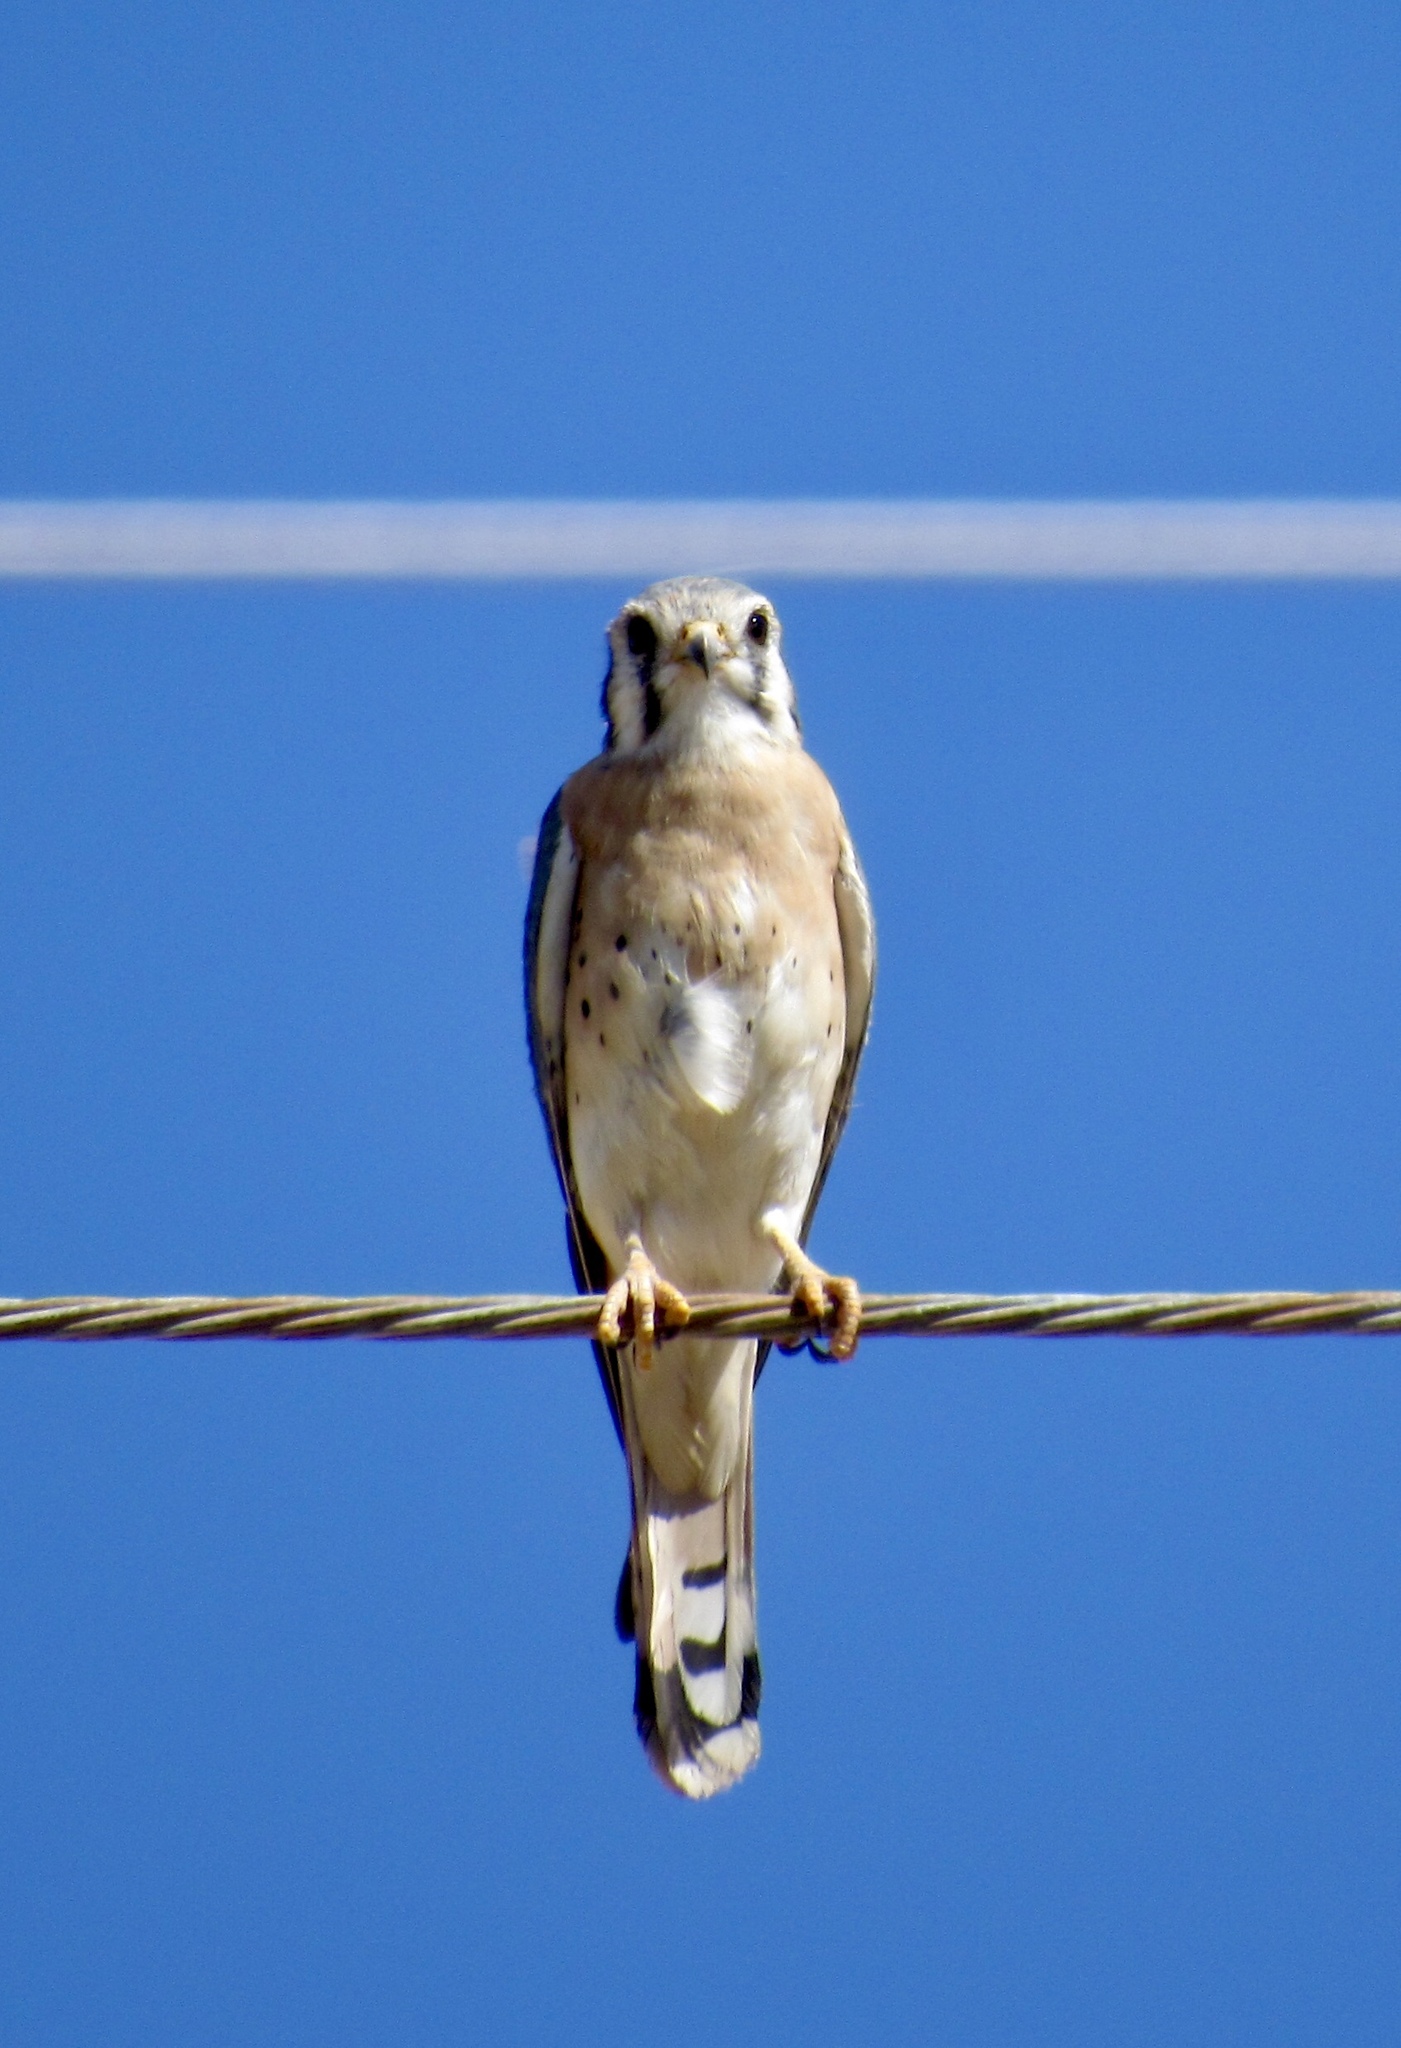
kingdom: Animalia
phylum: Chordata
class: Aves
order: Falconiformes
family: Falconidae
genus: Falco
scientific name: Falco sparverius
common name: American kestrel
